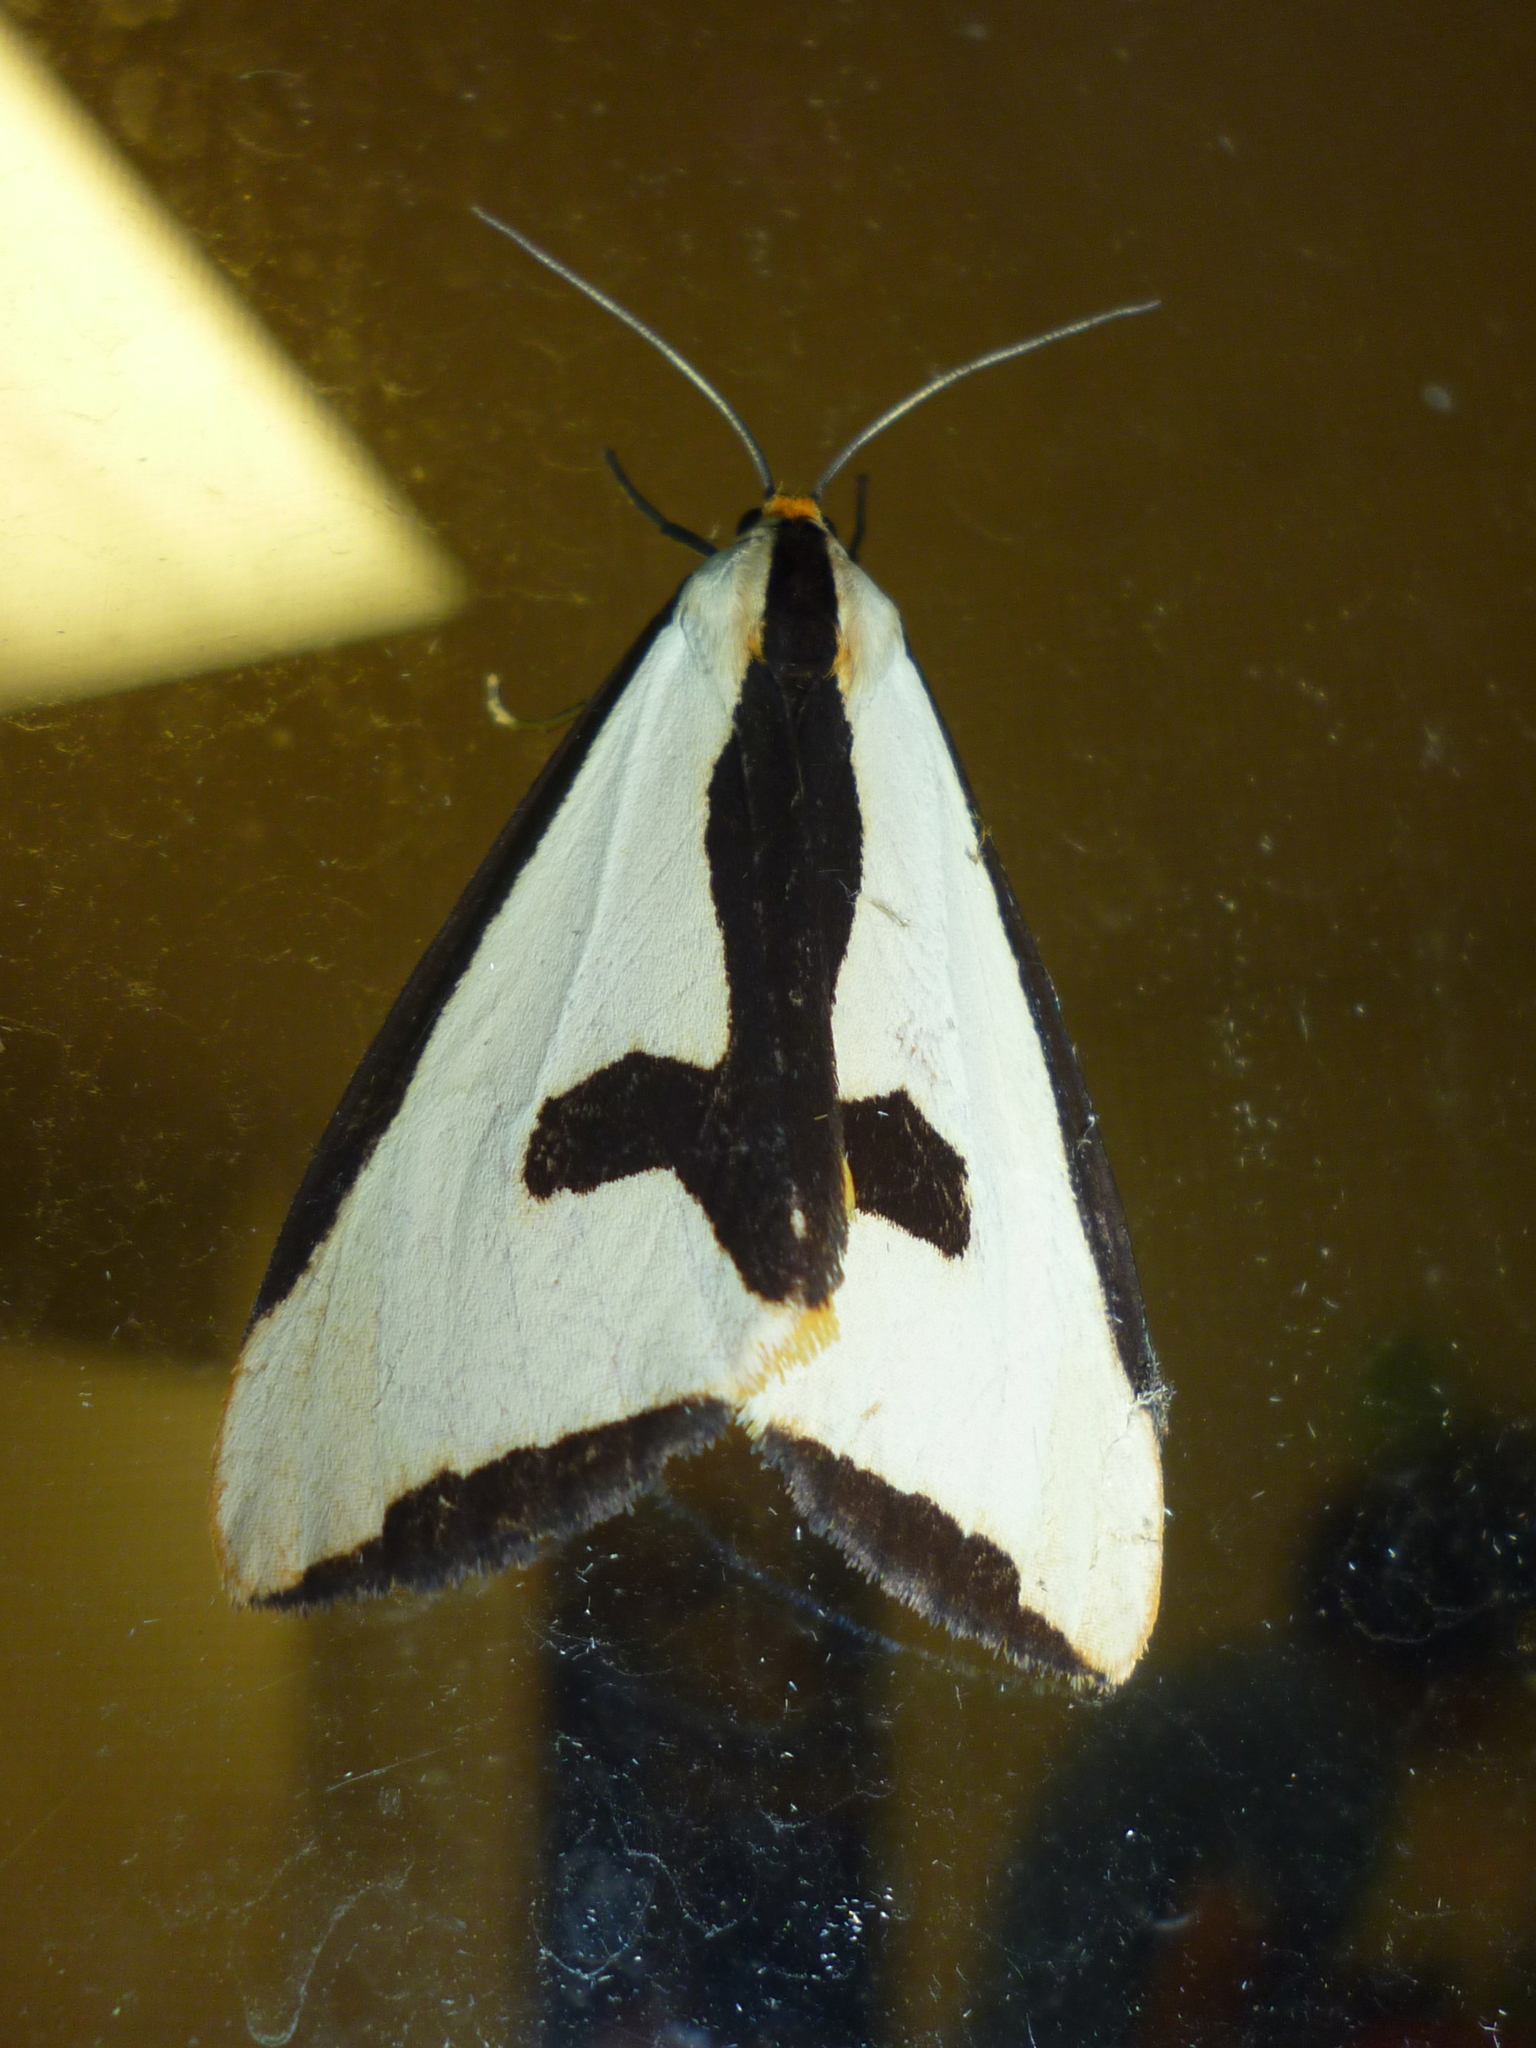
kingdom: Animalia
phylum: Arthropoda
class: Insecta
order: Lepidoptera
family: Erebidae
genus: Haploa
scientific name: Haploa clymene
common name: Clymene moth
